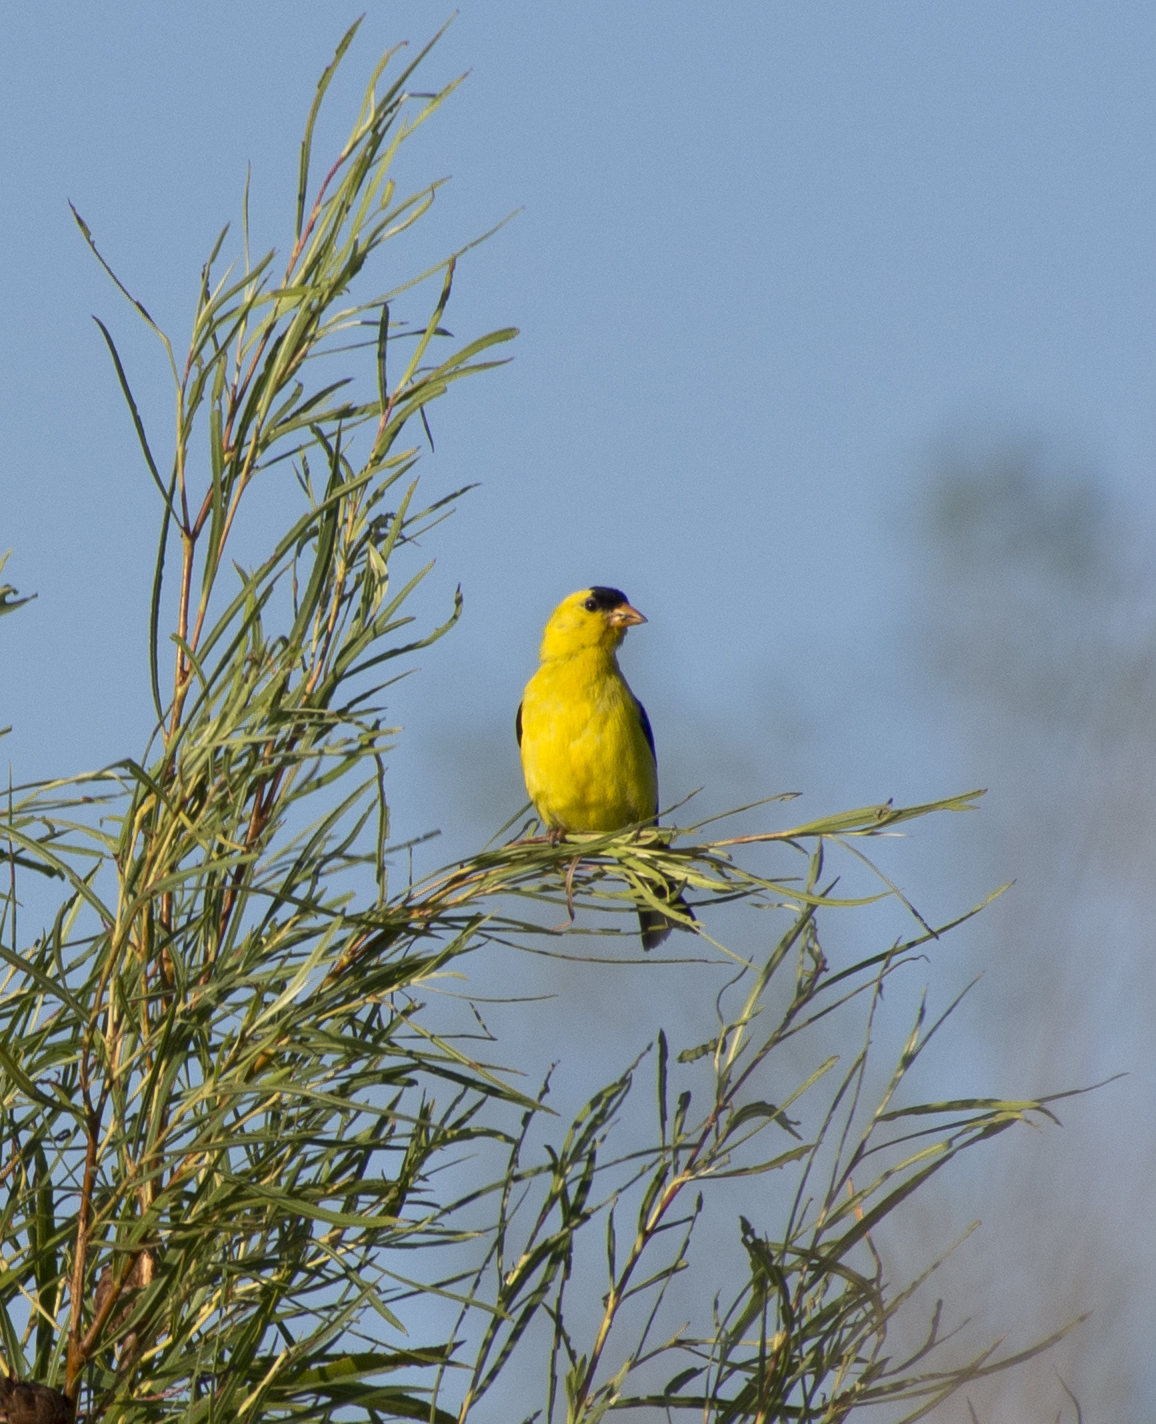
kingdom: Animalia
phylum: Chordata
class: Aves
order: Passeriformes
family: Fringillidae
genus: Spinus
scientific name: Spinus tristis
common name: American goldfinch
